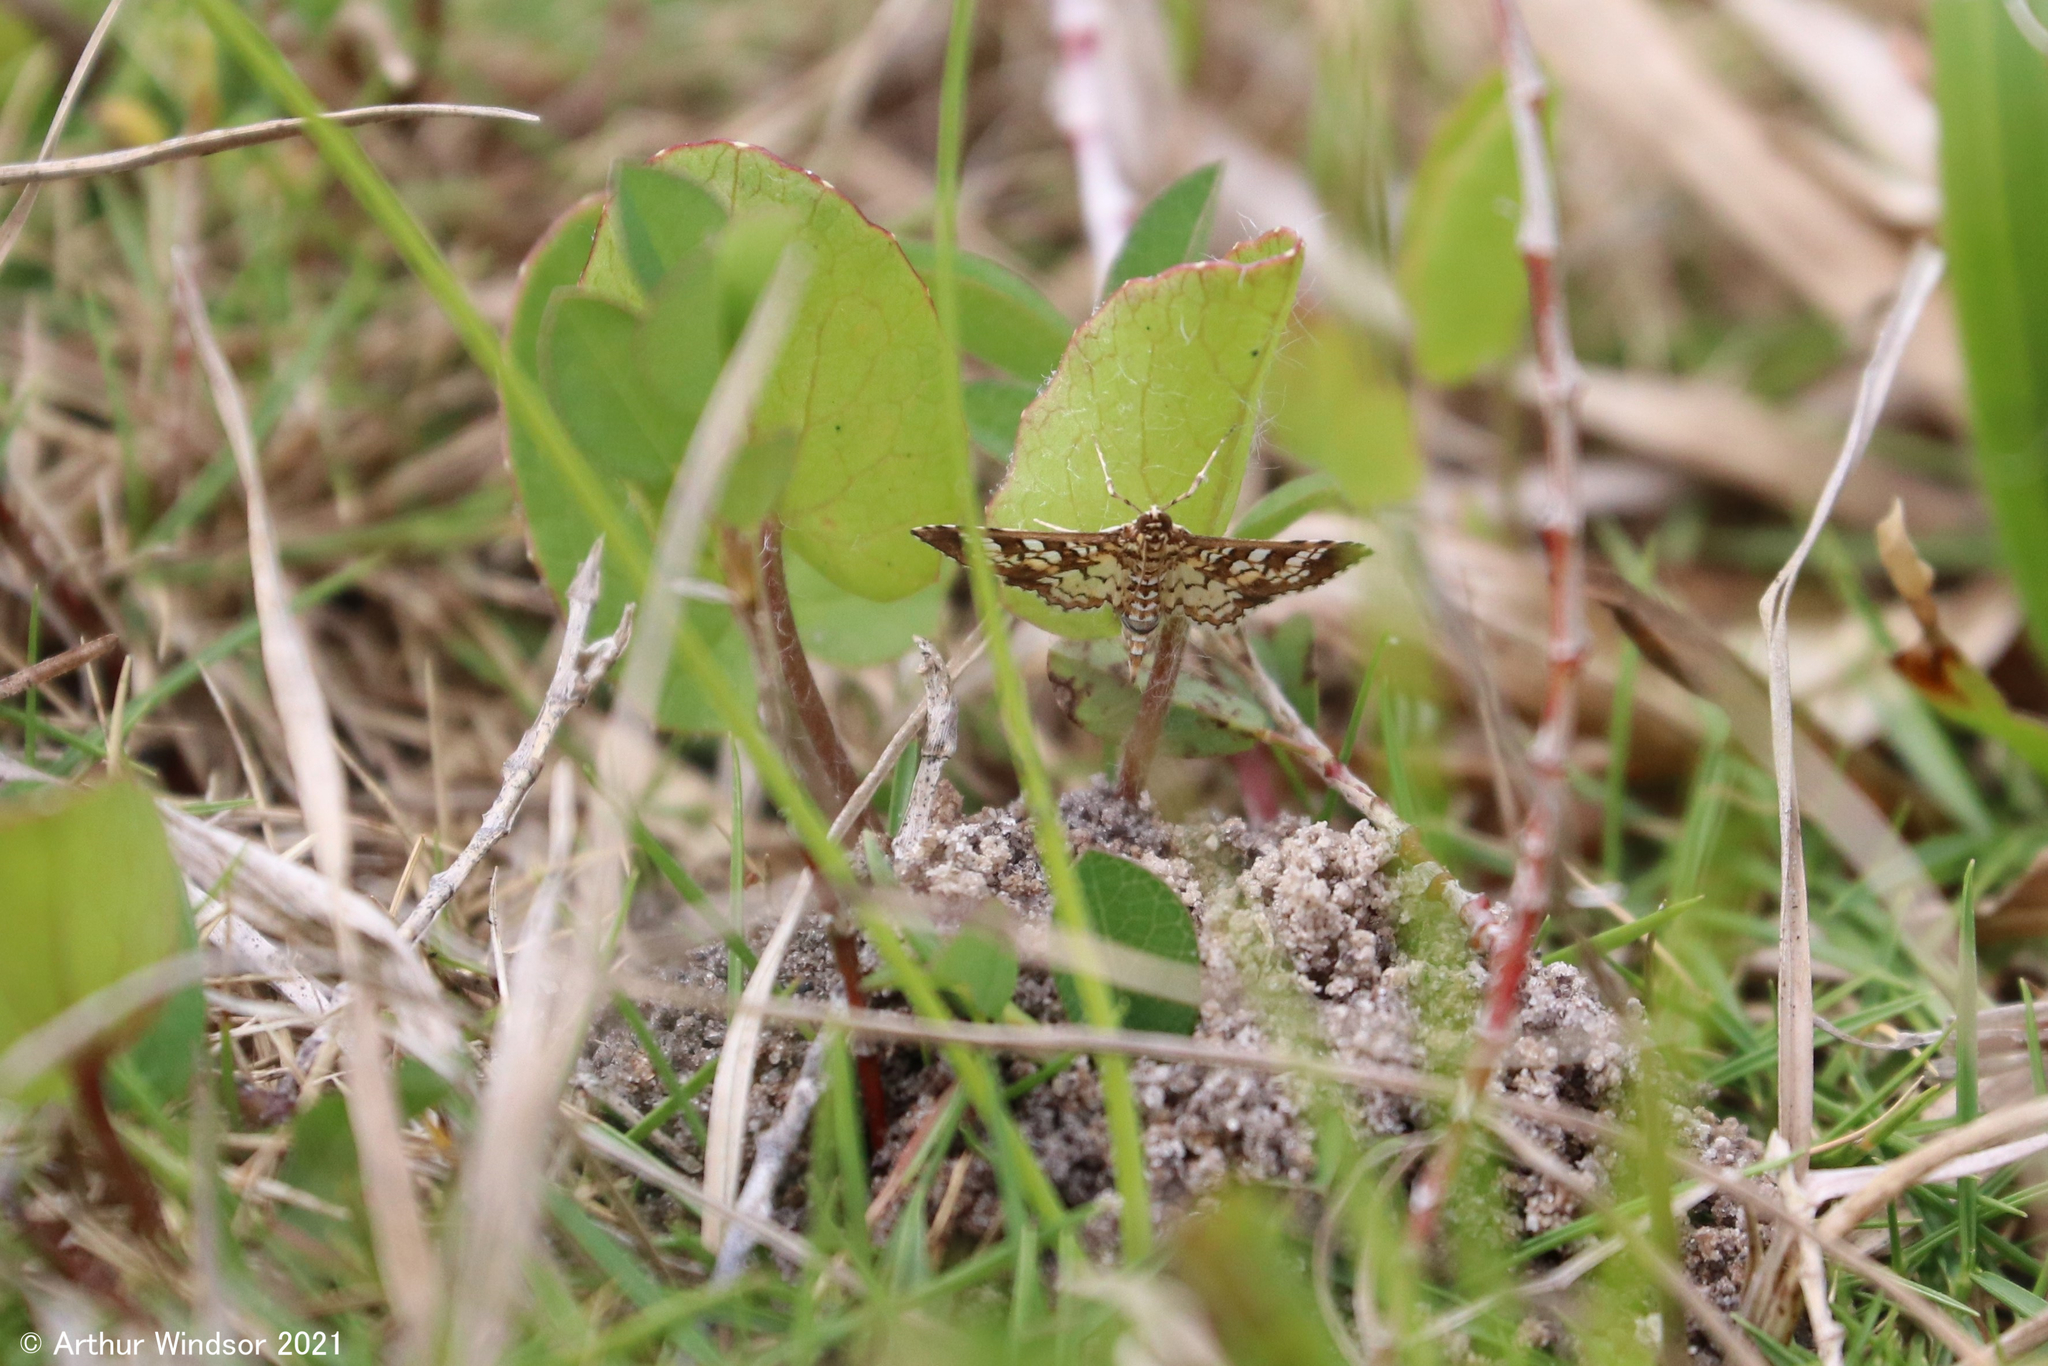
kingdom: Animalia
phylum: Arthropoda
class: Insecta
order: Lepidoptera
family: Crambidae
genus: Samea
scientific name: Samea ecclesialis
